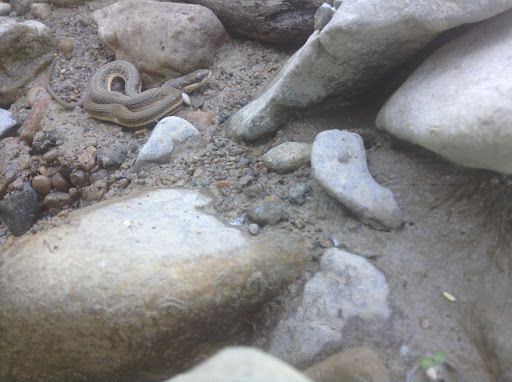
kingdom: Animalia
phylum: Chordata
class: Squamata
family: Colubridae
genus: Regina
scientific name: Regina septemvittata
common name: Queen snake
